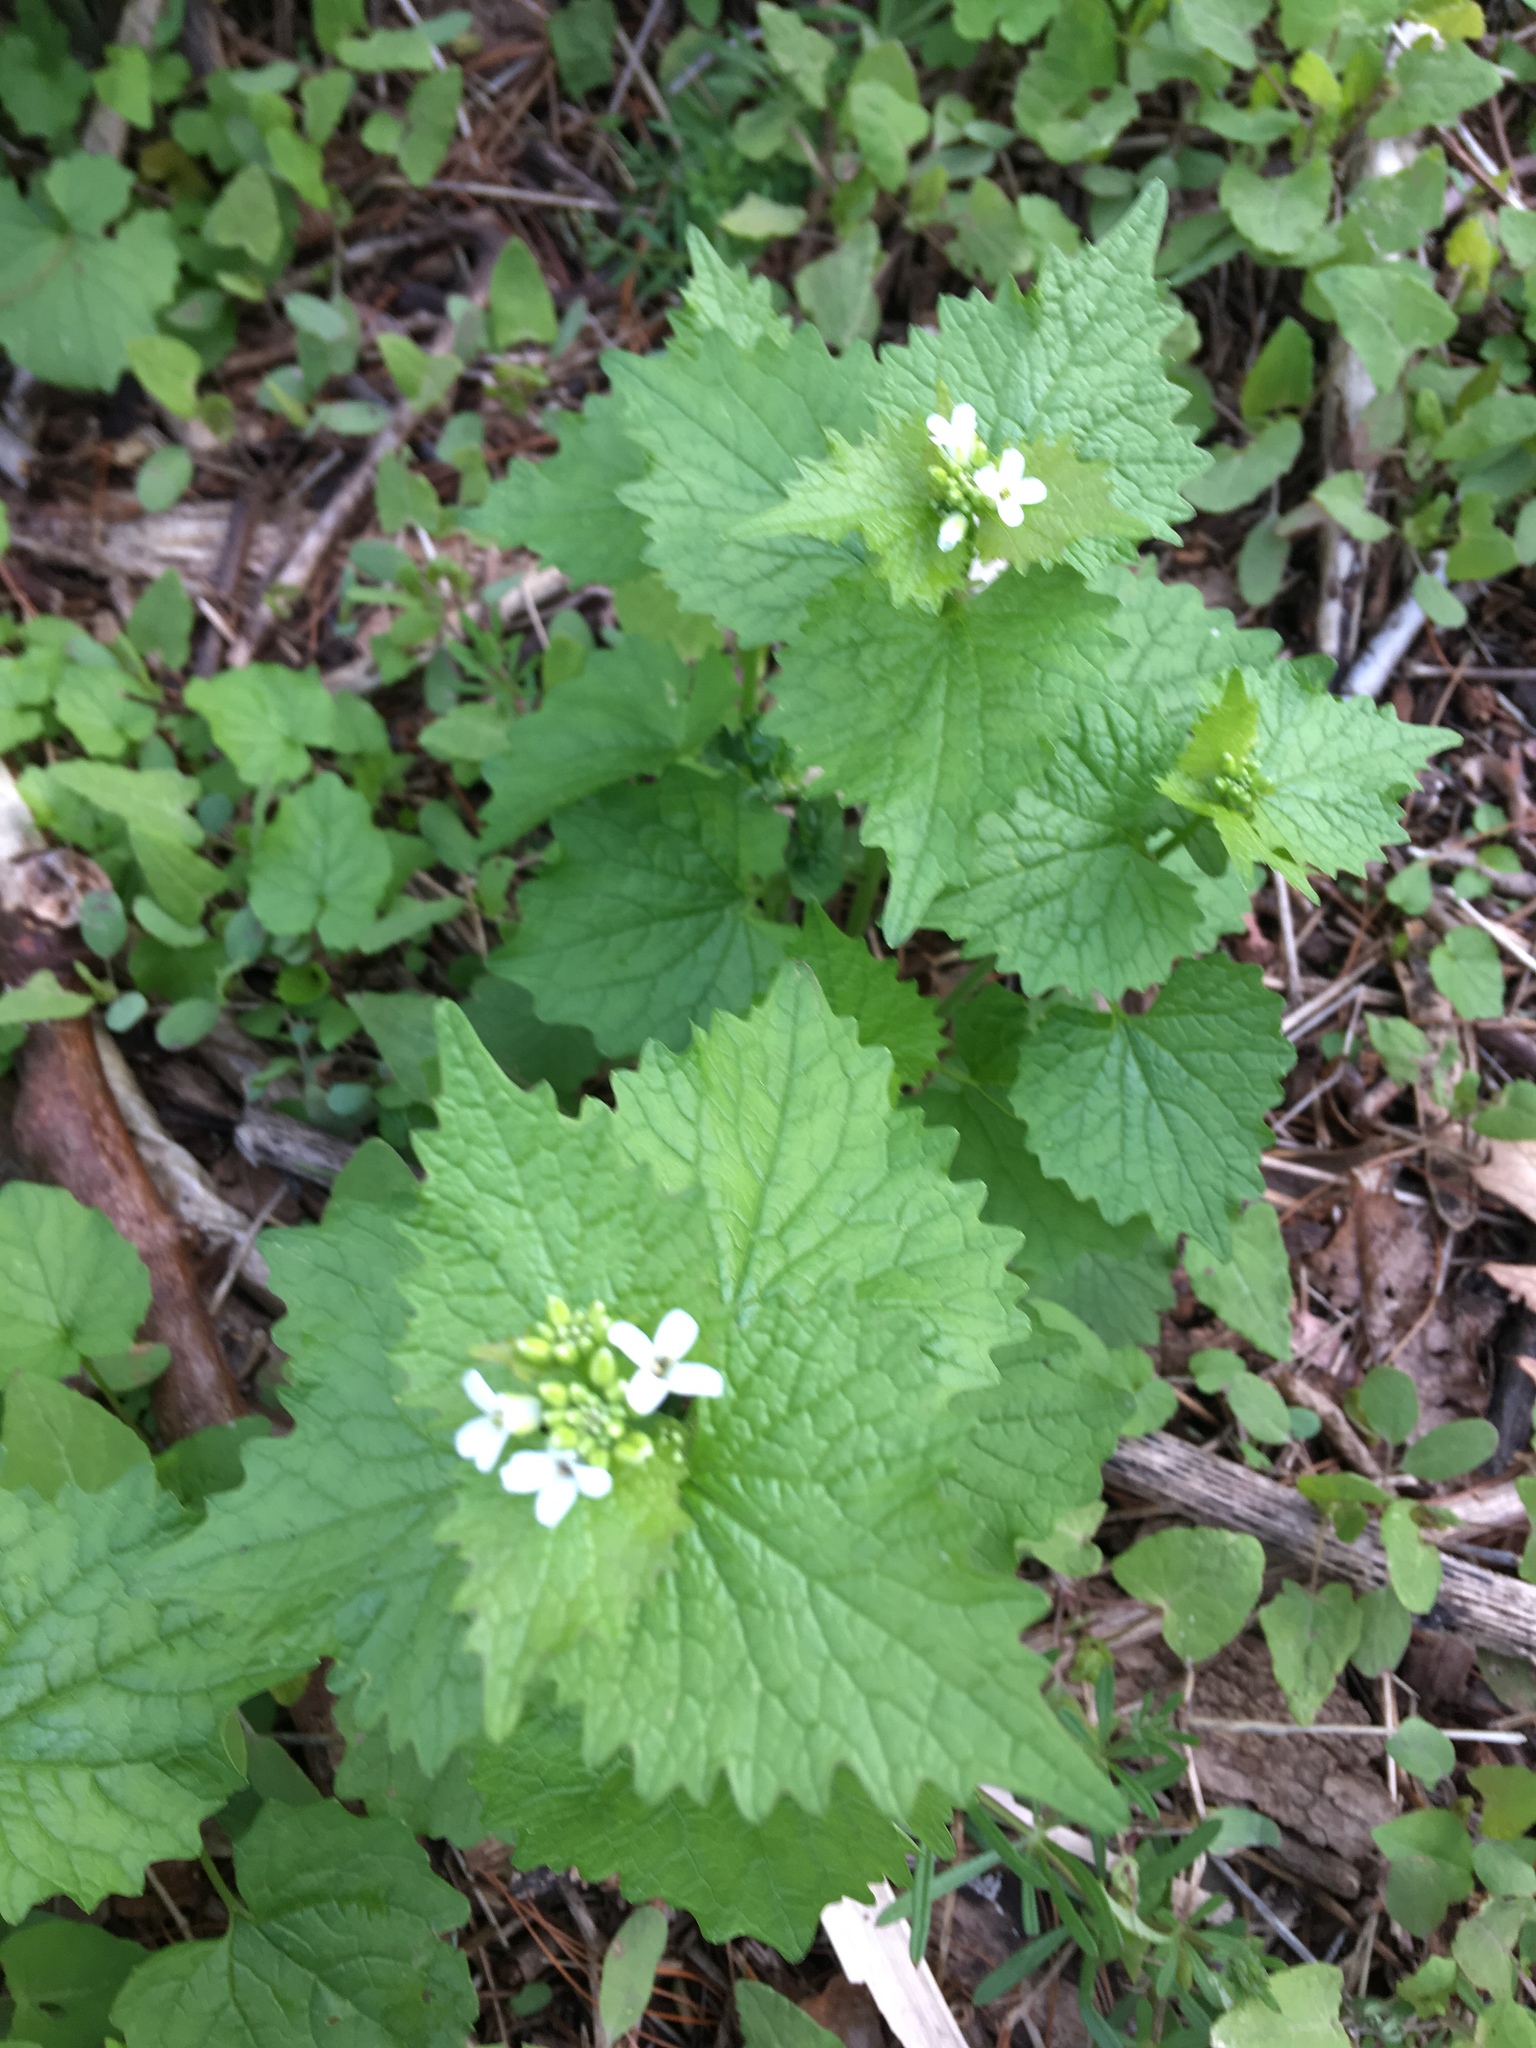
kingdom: Plantae
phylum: Tracheophyta
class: Magnoliopsida
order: Brassicales
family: Brassicaceae
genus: Alliaria
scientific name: Alliaria petiolata
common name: Garlic mustard
